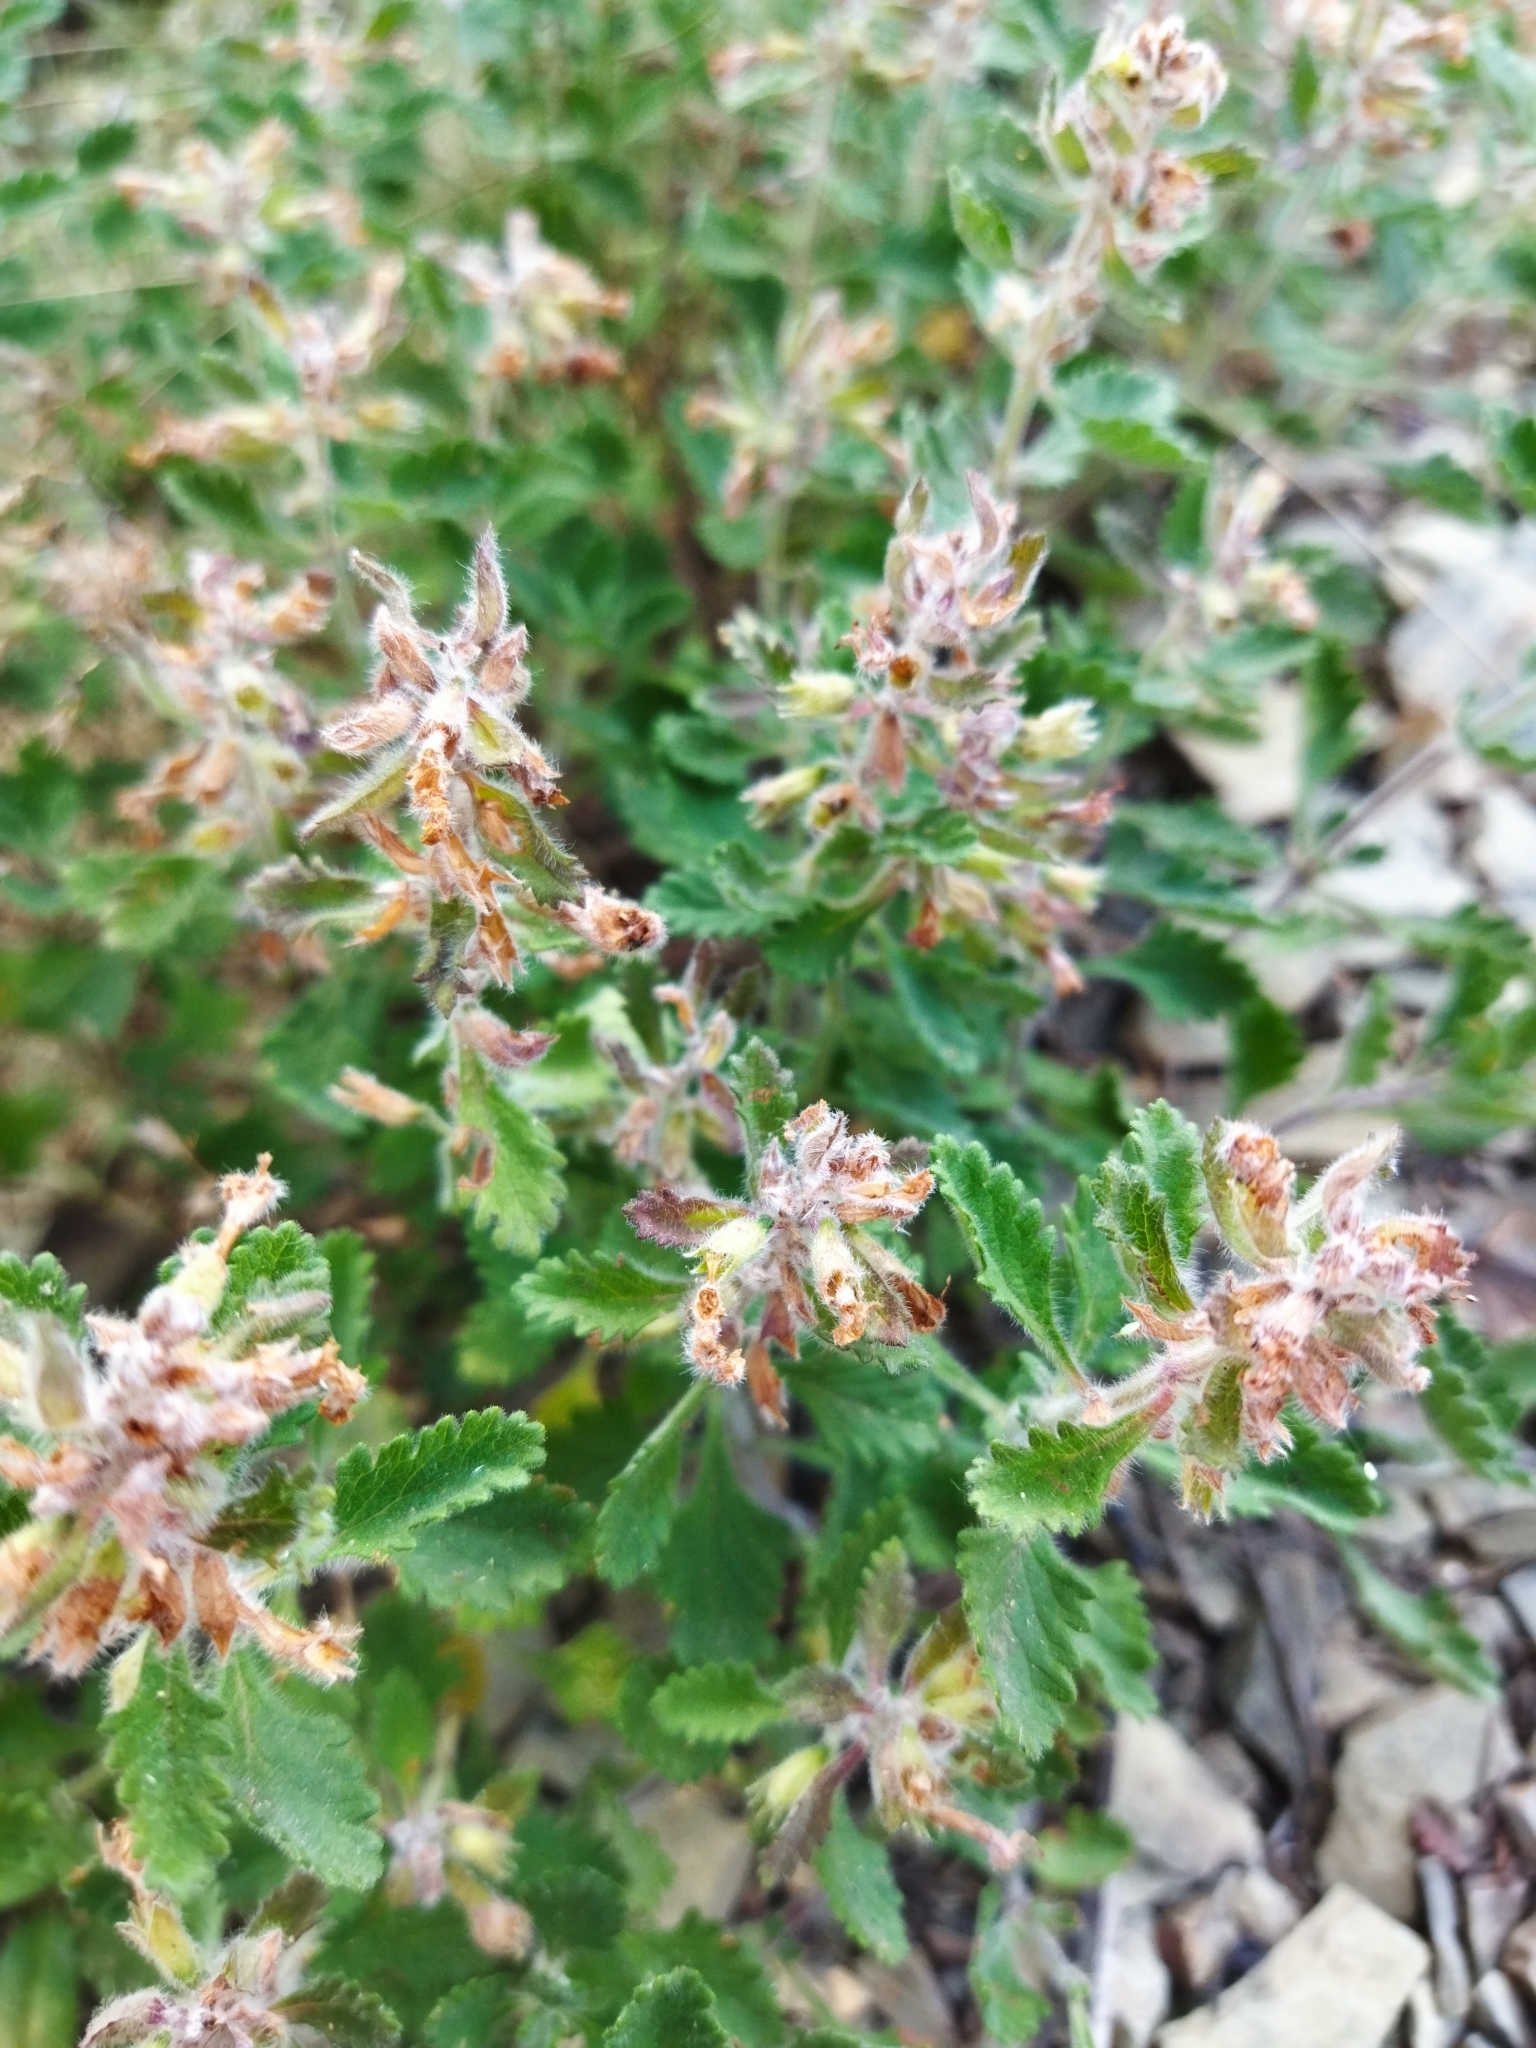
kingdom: Plantae
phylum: Tracheophyta
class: Magnoliopsida
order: Lamiales
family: Lamiaceae
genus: Teucrium
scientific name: Teucrium chamaedrys
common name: Wall germander
